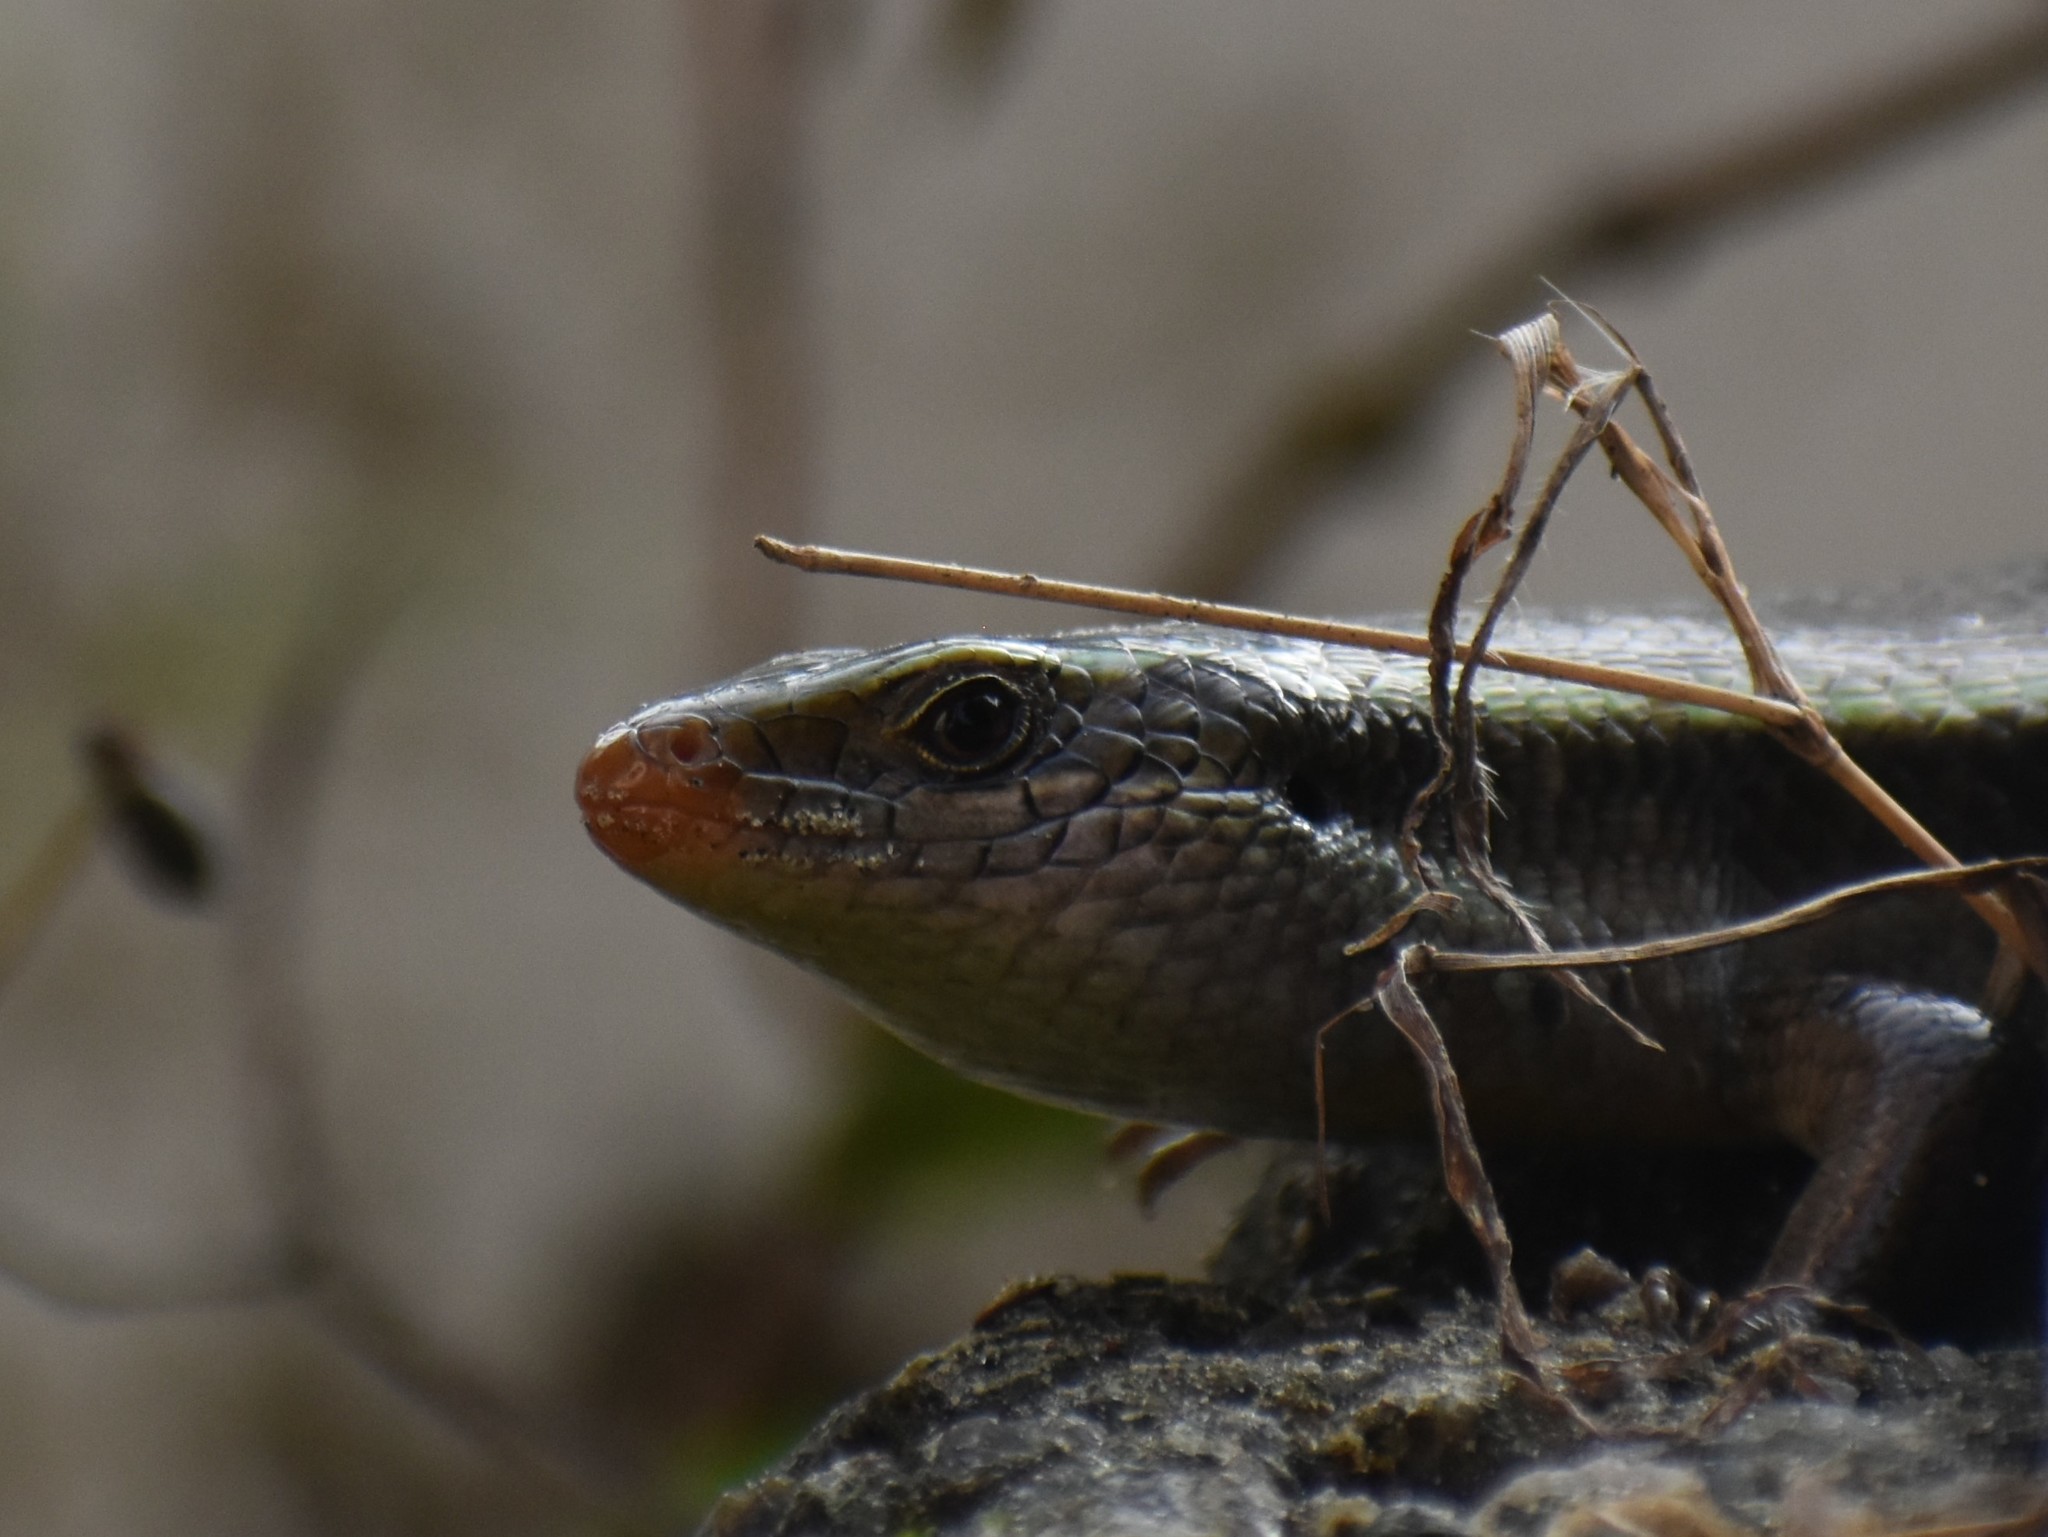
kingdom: Animalia
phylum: Chordata
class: Squamata
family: Scincidae
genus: Eutropis
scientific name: Eutropis carinata
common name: Keeled indian mabuya
